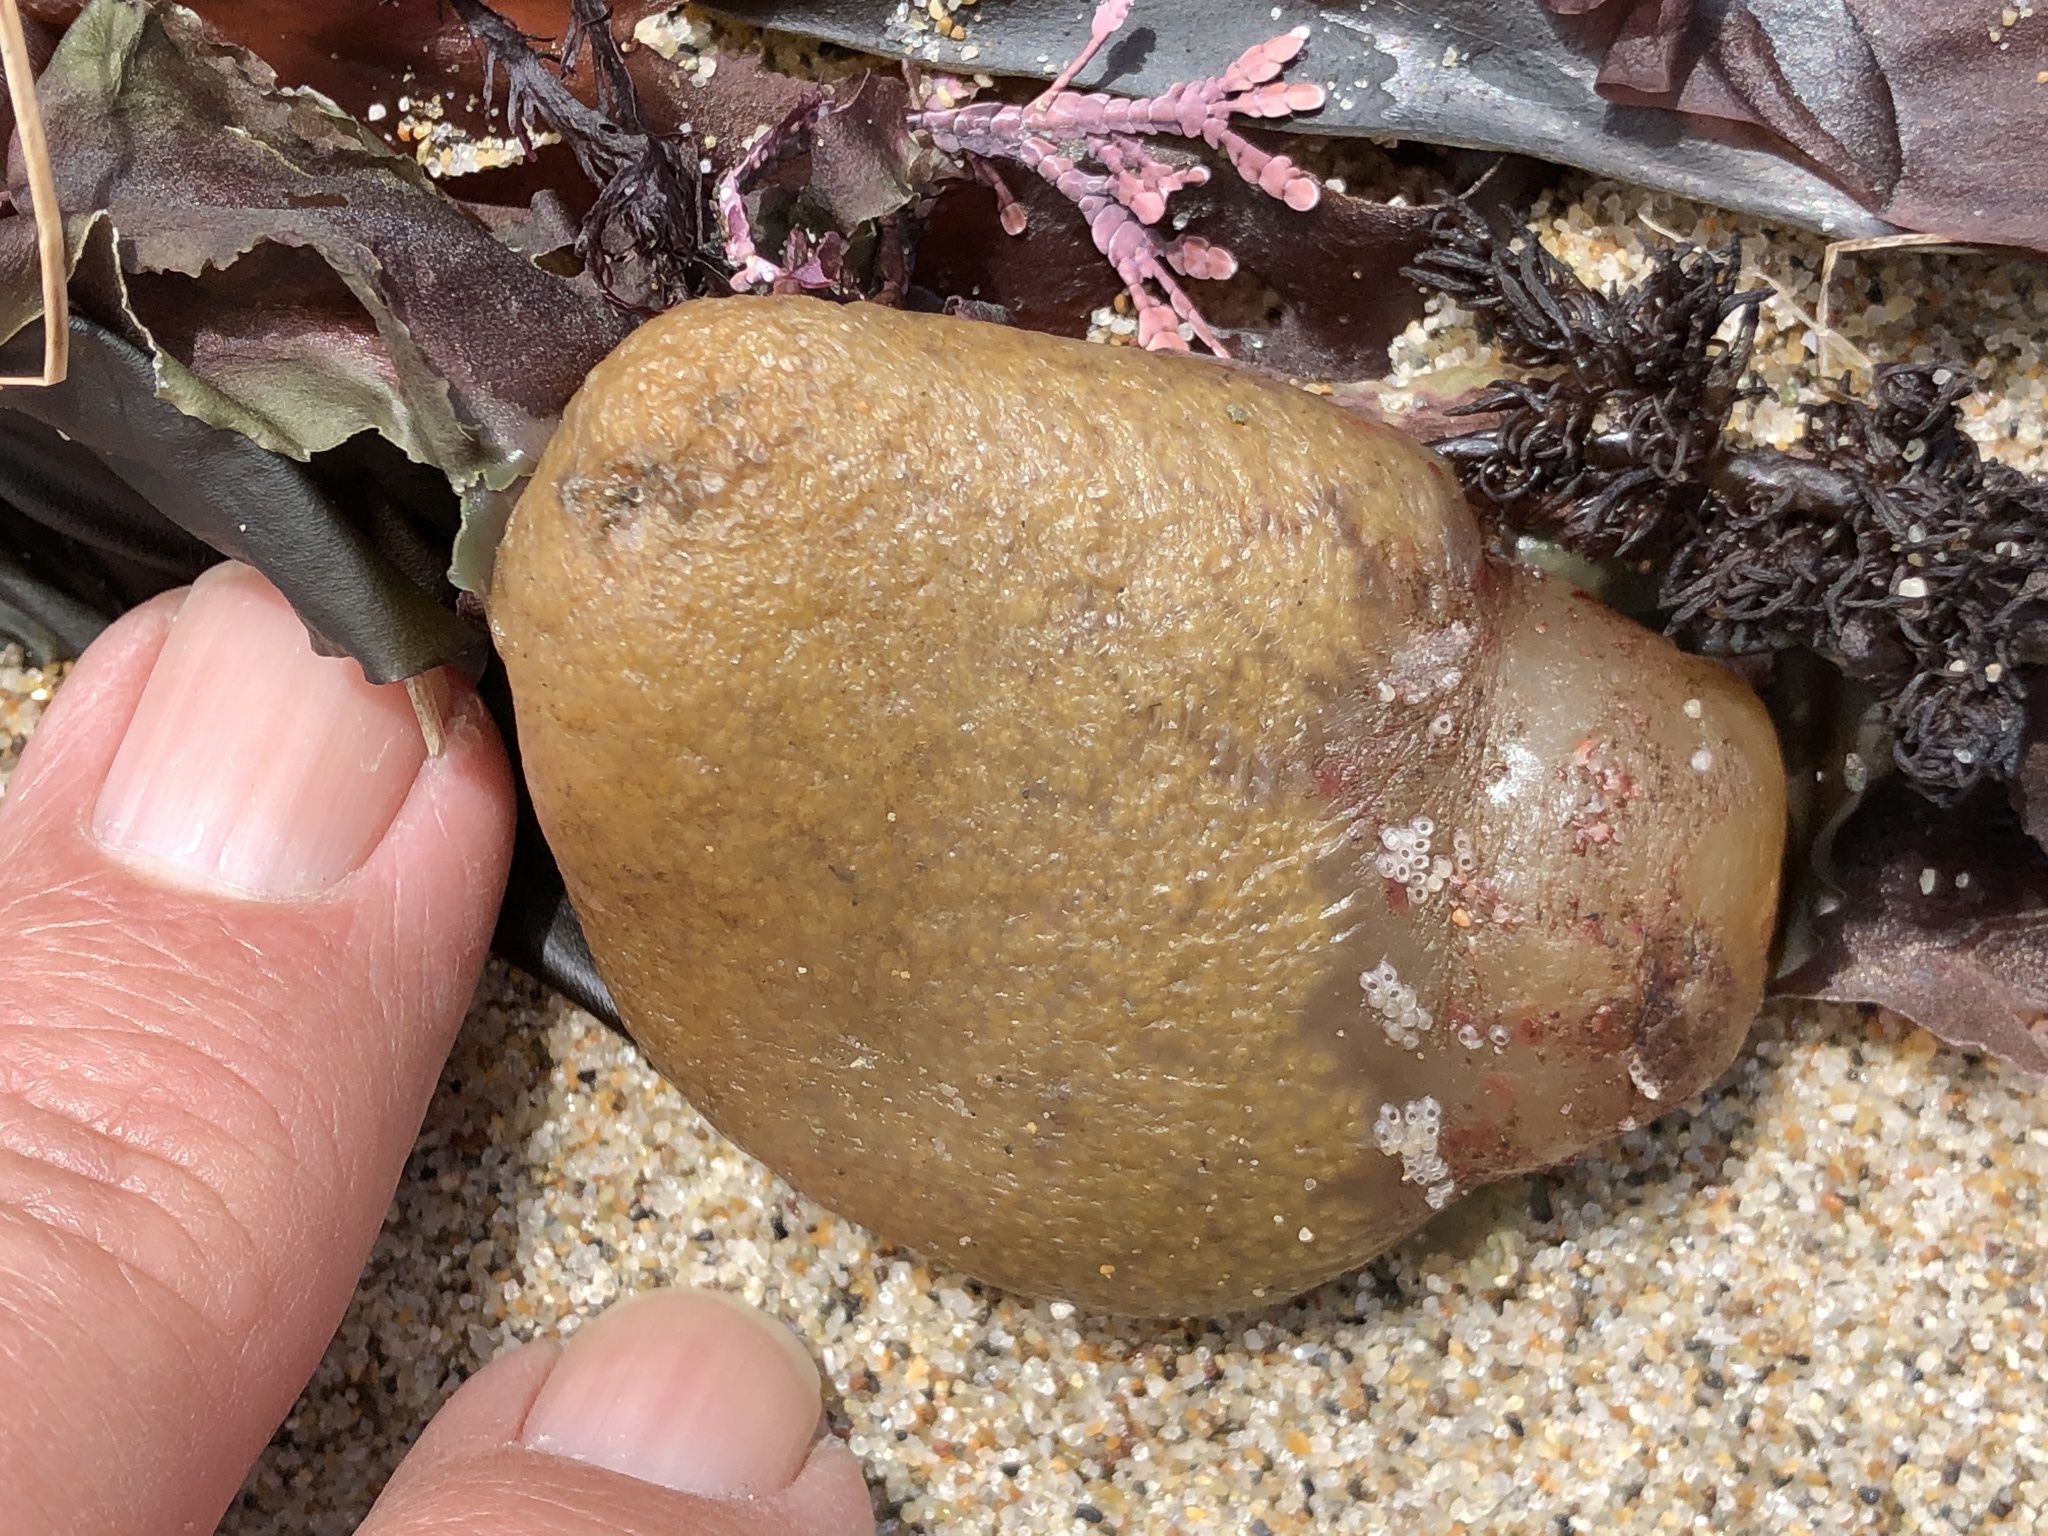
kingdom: Animalia
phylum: Chordata
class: Ascidiacea
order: Aplousobranchia
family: Polyclinidae
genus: Aplidium
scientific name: Aplidium californicum
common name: Sea pork
